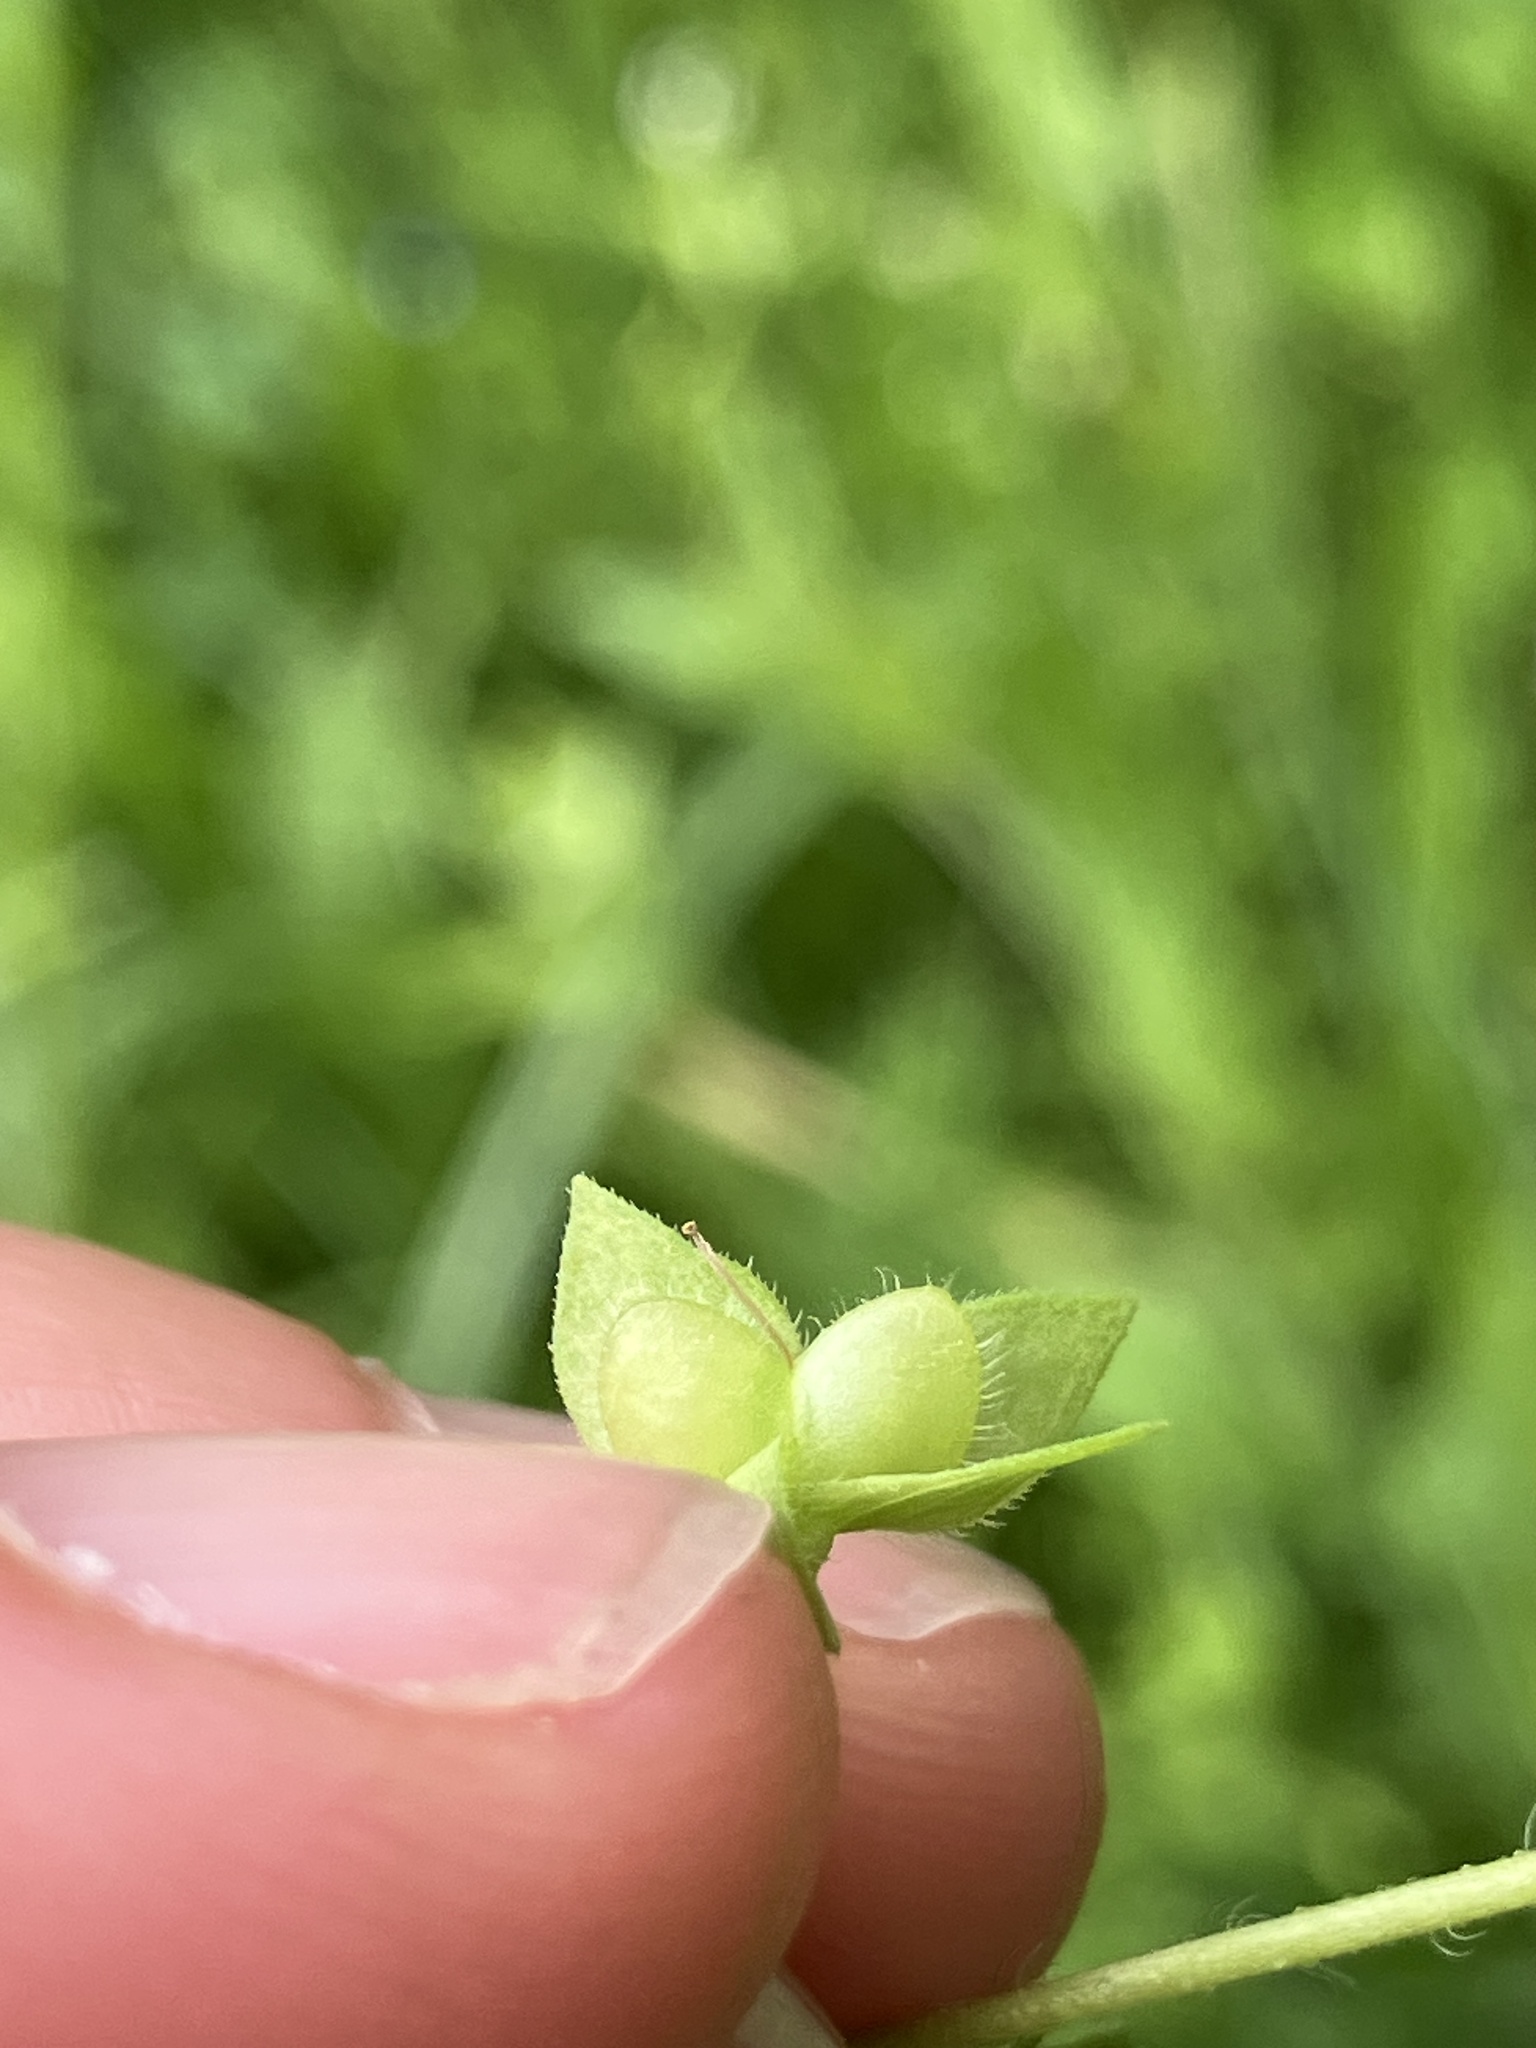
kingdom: Plantae
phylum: Tracheophyta
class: Magnoliopsida
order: Lamiales
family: Plantaginaceae
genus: Veronica
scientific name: Veronica persica
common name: Common field-speedwell
